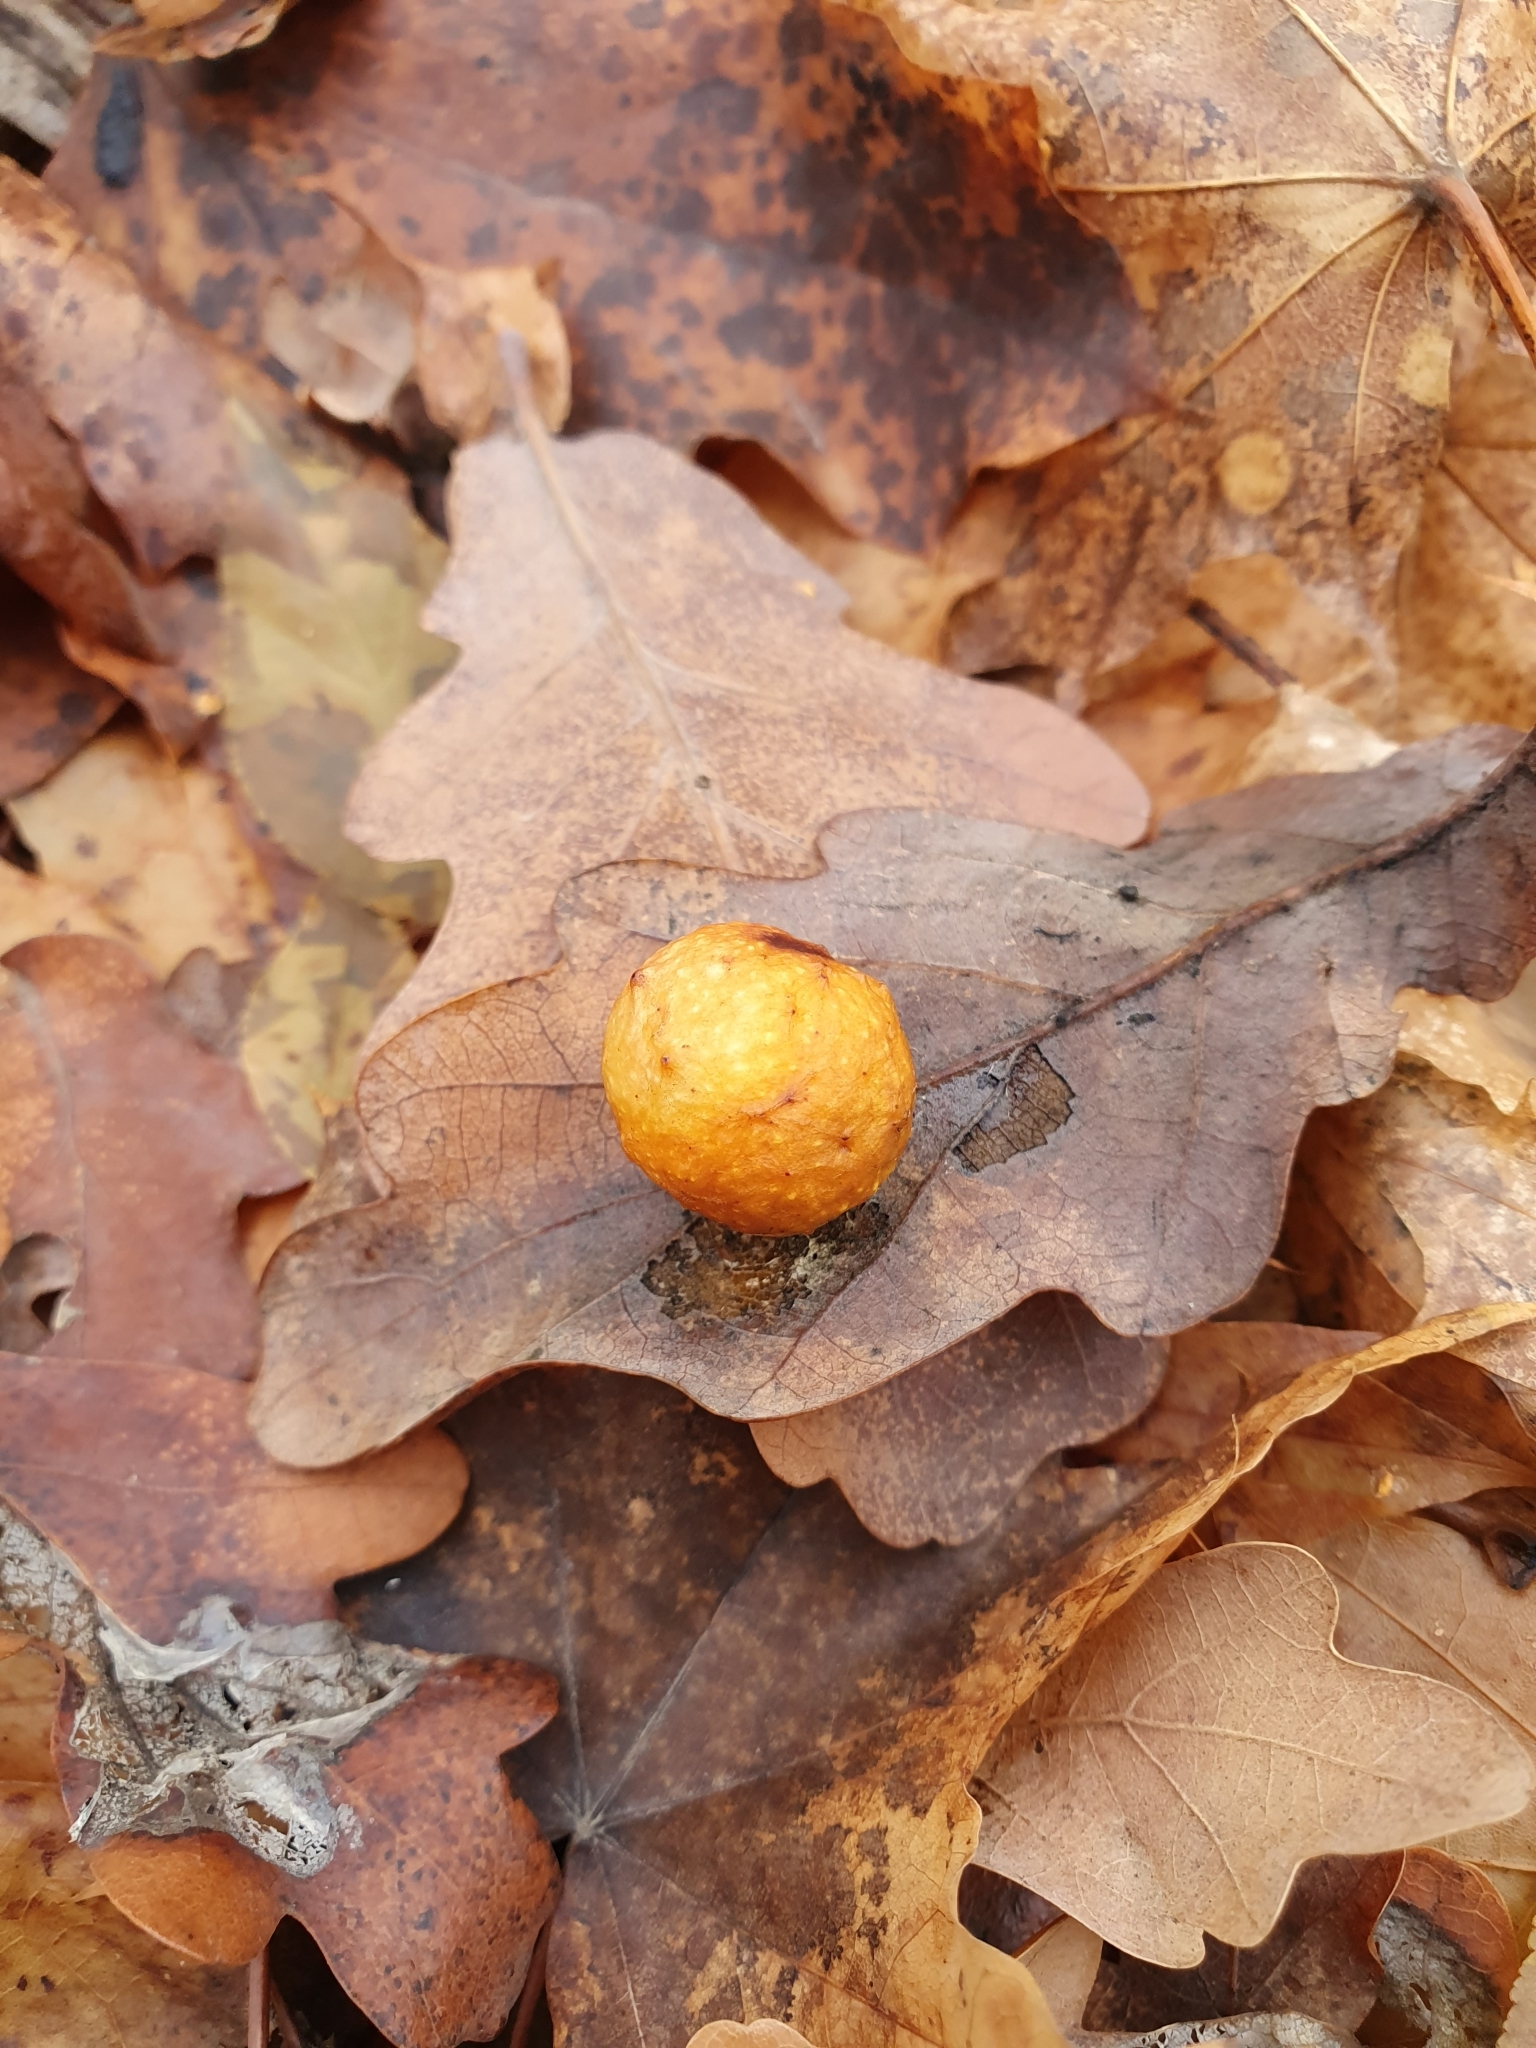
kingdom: Animalia
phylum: Arthropoda
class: Insecta
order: Hymenoptera
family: Cynipidae
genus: Cynips
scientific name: Cynips quercusfolii
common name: Cherry gall
